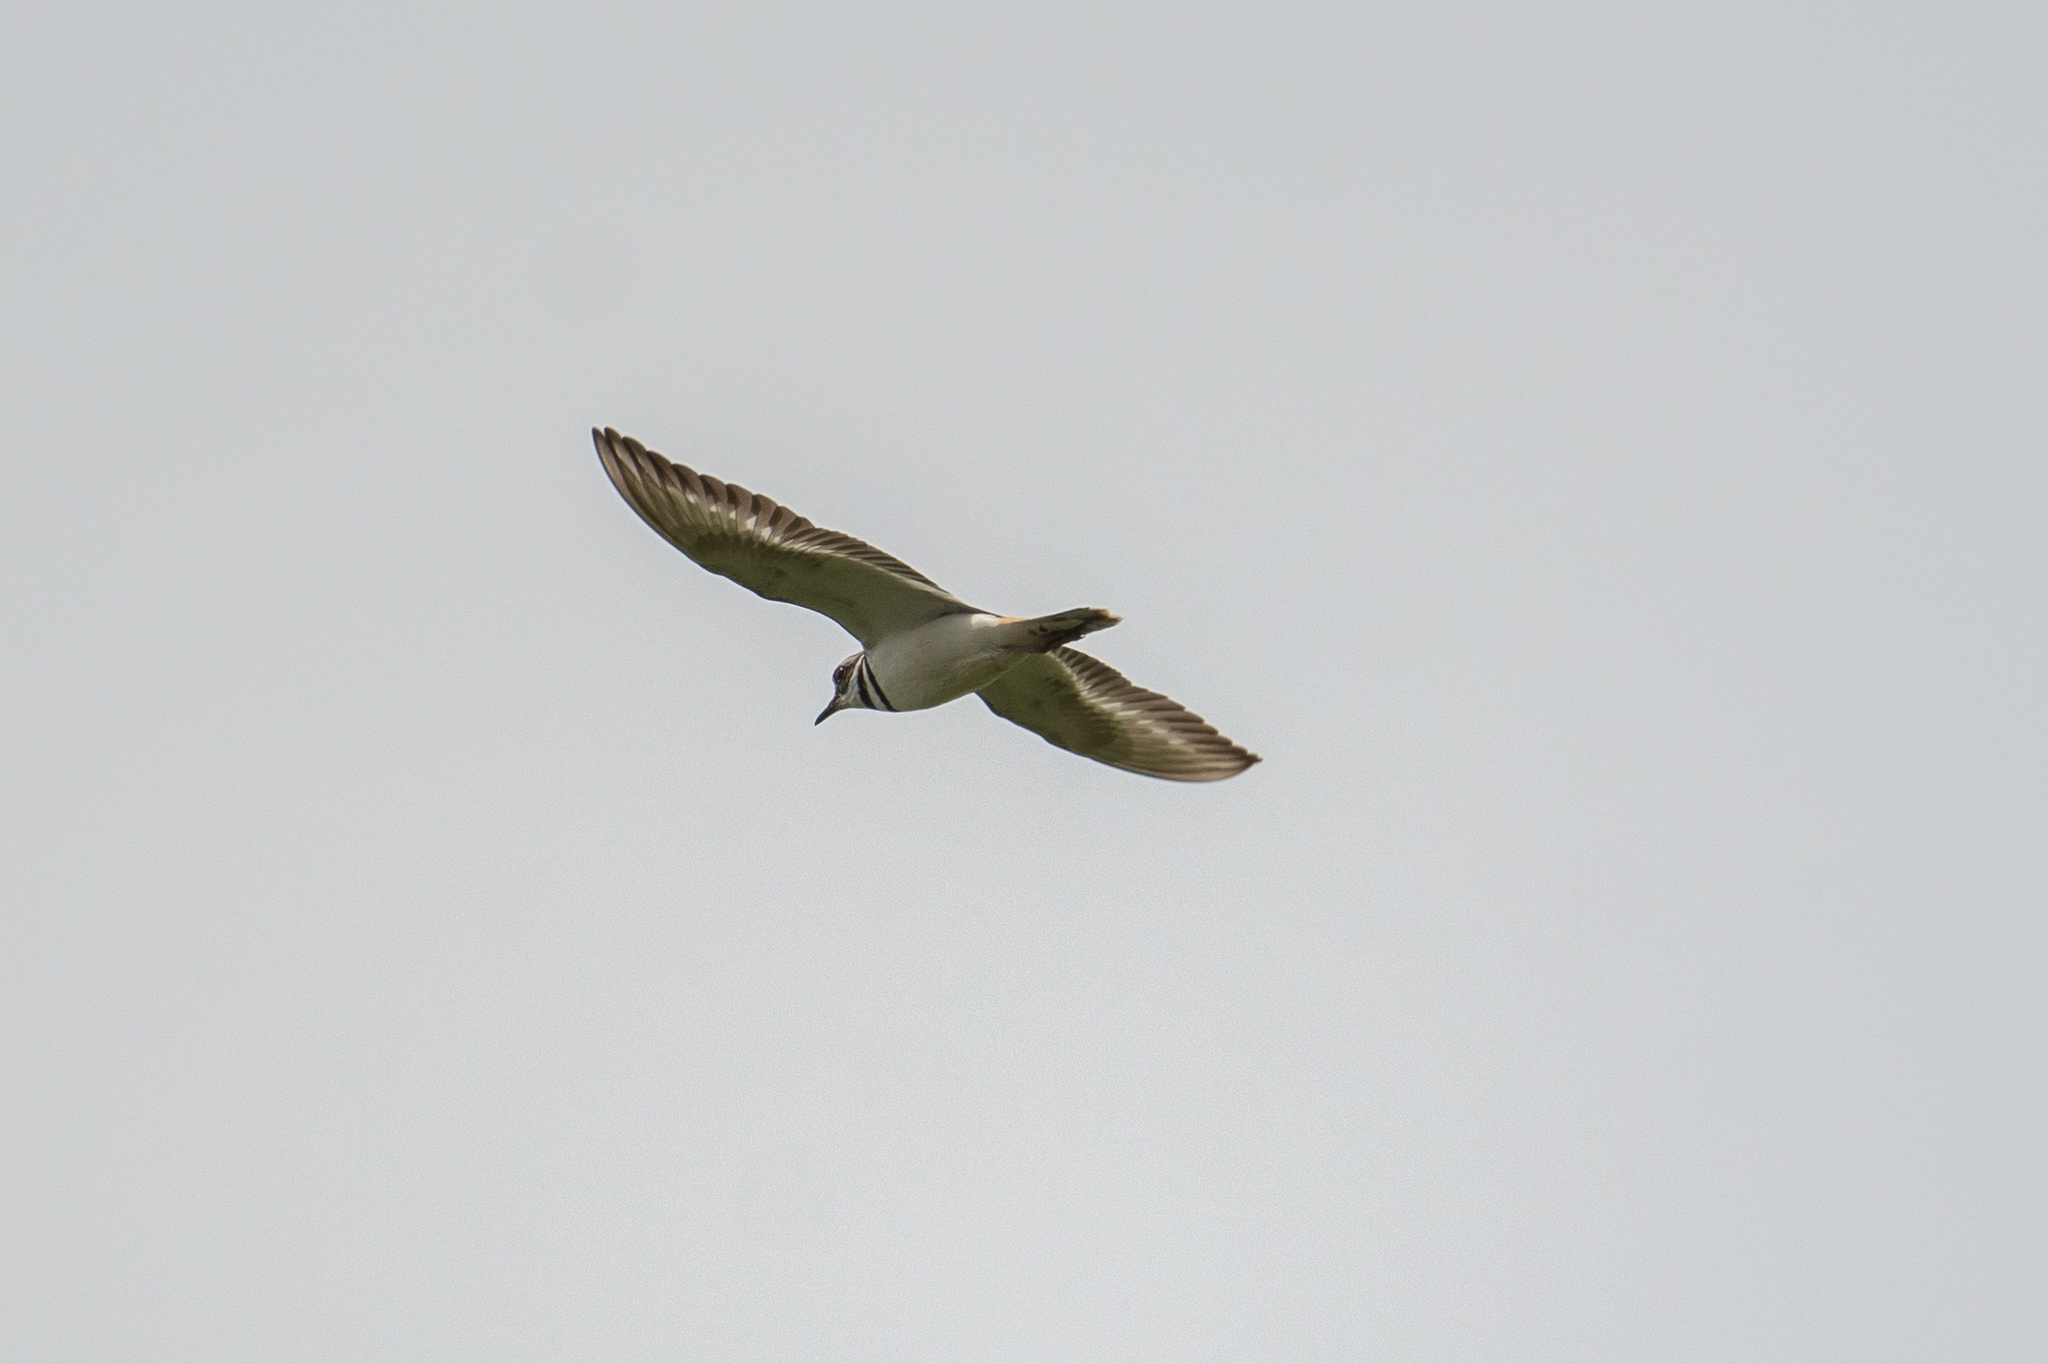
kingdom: Animalia
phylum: Chordata
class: Aves
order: Charadriiformes
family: Charadriidae
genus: Charadrius
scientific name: Charadrius vociferus
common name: Killdeer
